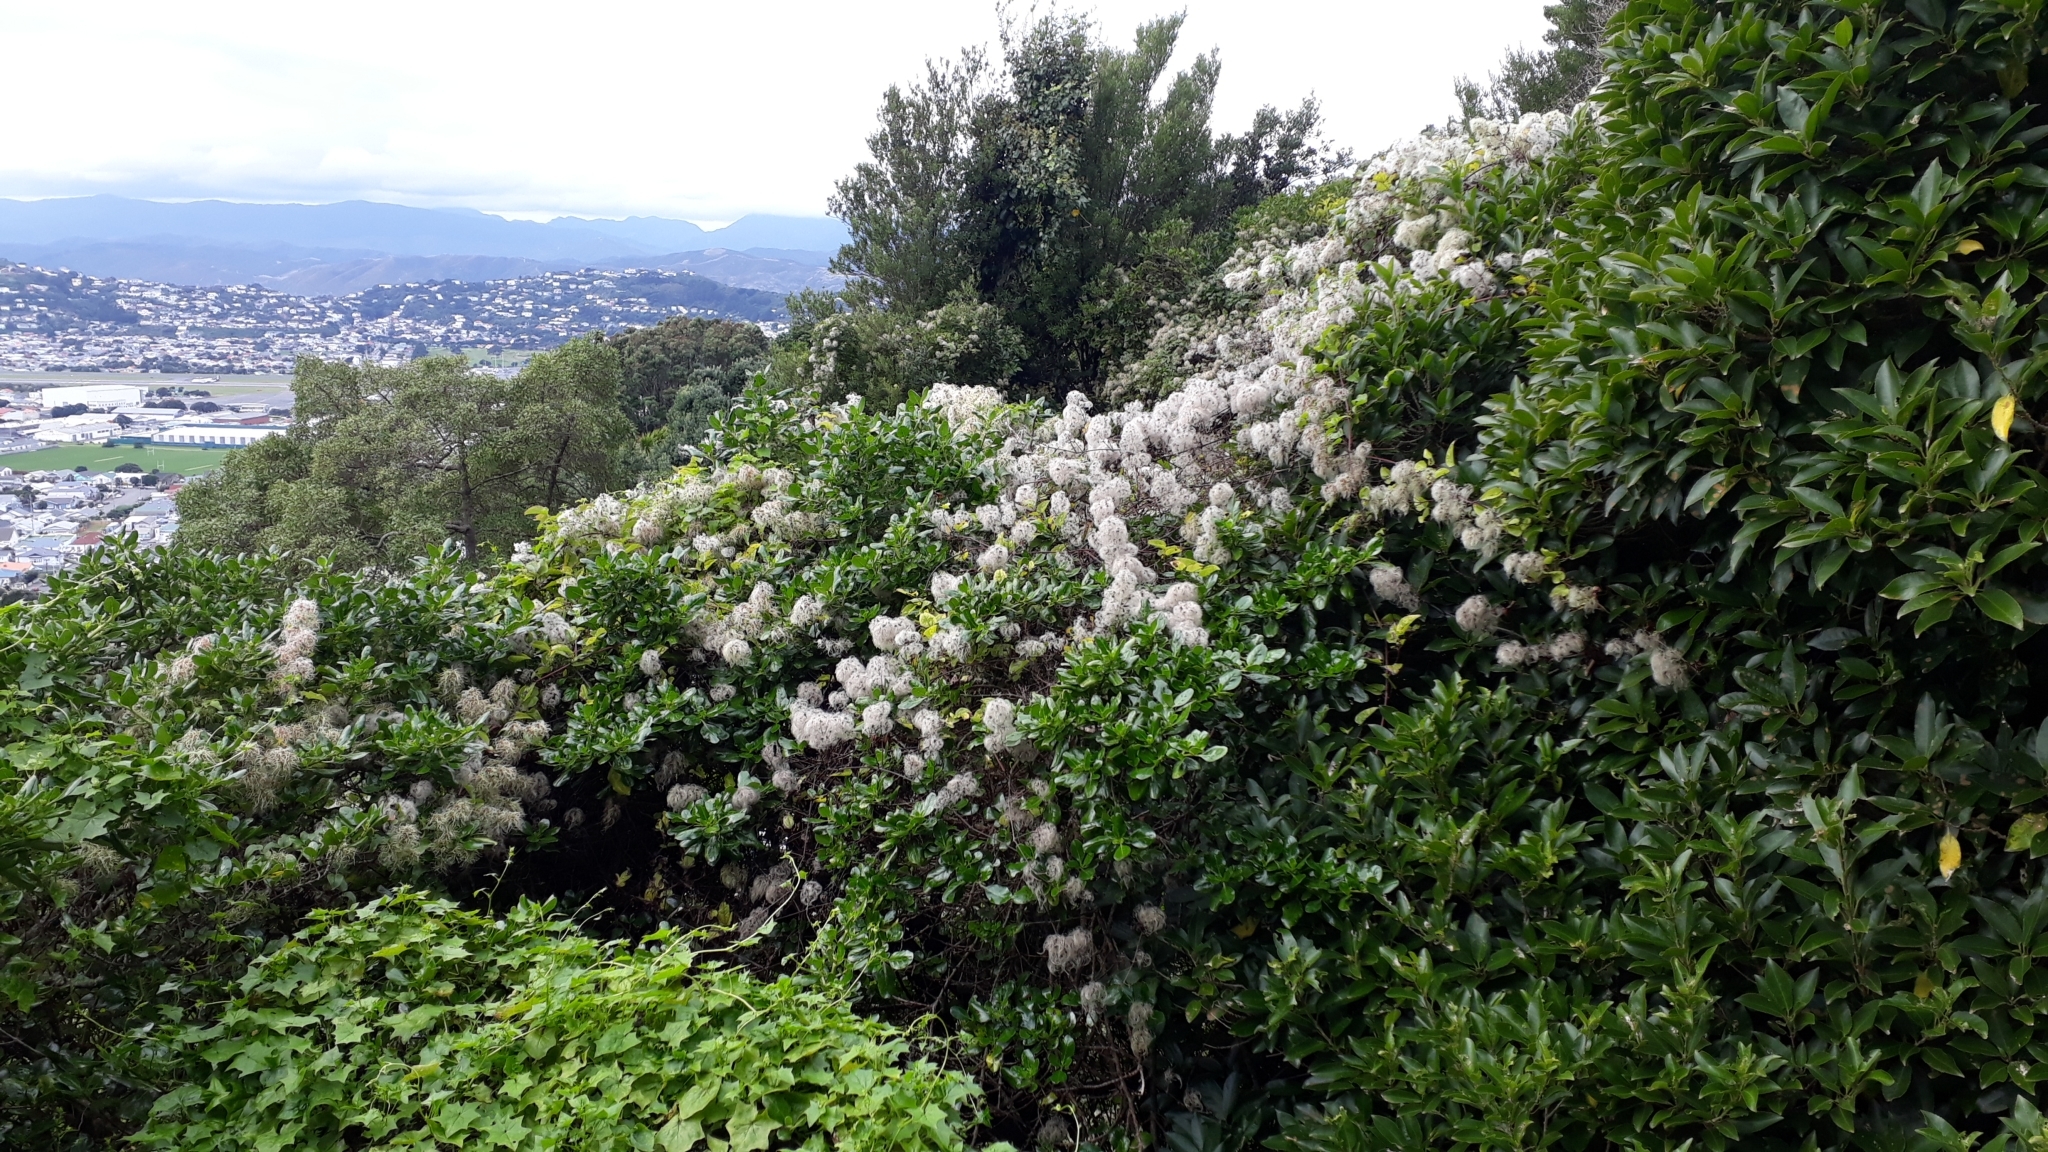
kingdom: Plantae
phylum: Tracheophyta
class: Magnoliopsida
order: Ranunculales
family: Ranunculaceae
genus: Clematis
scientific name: Clematis vitalba
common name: Evergreen clematis
